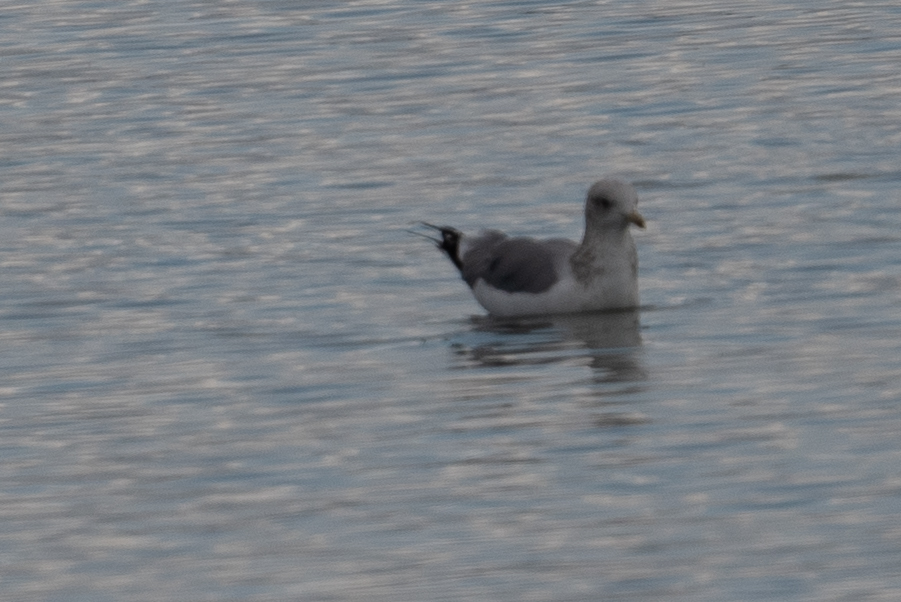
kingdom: Animalia
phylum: Chordata
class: Aves
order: Charadriiformes
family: Laridae
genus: Larus
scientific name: Larus californicus
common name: California gull
